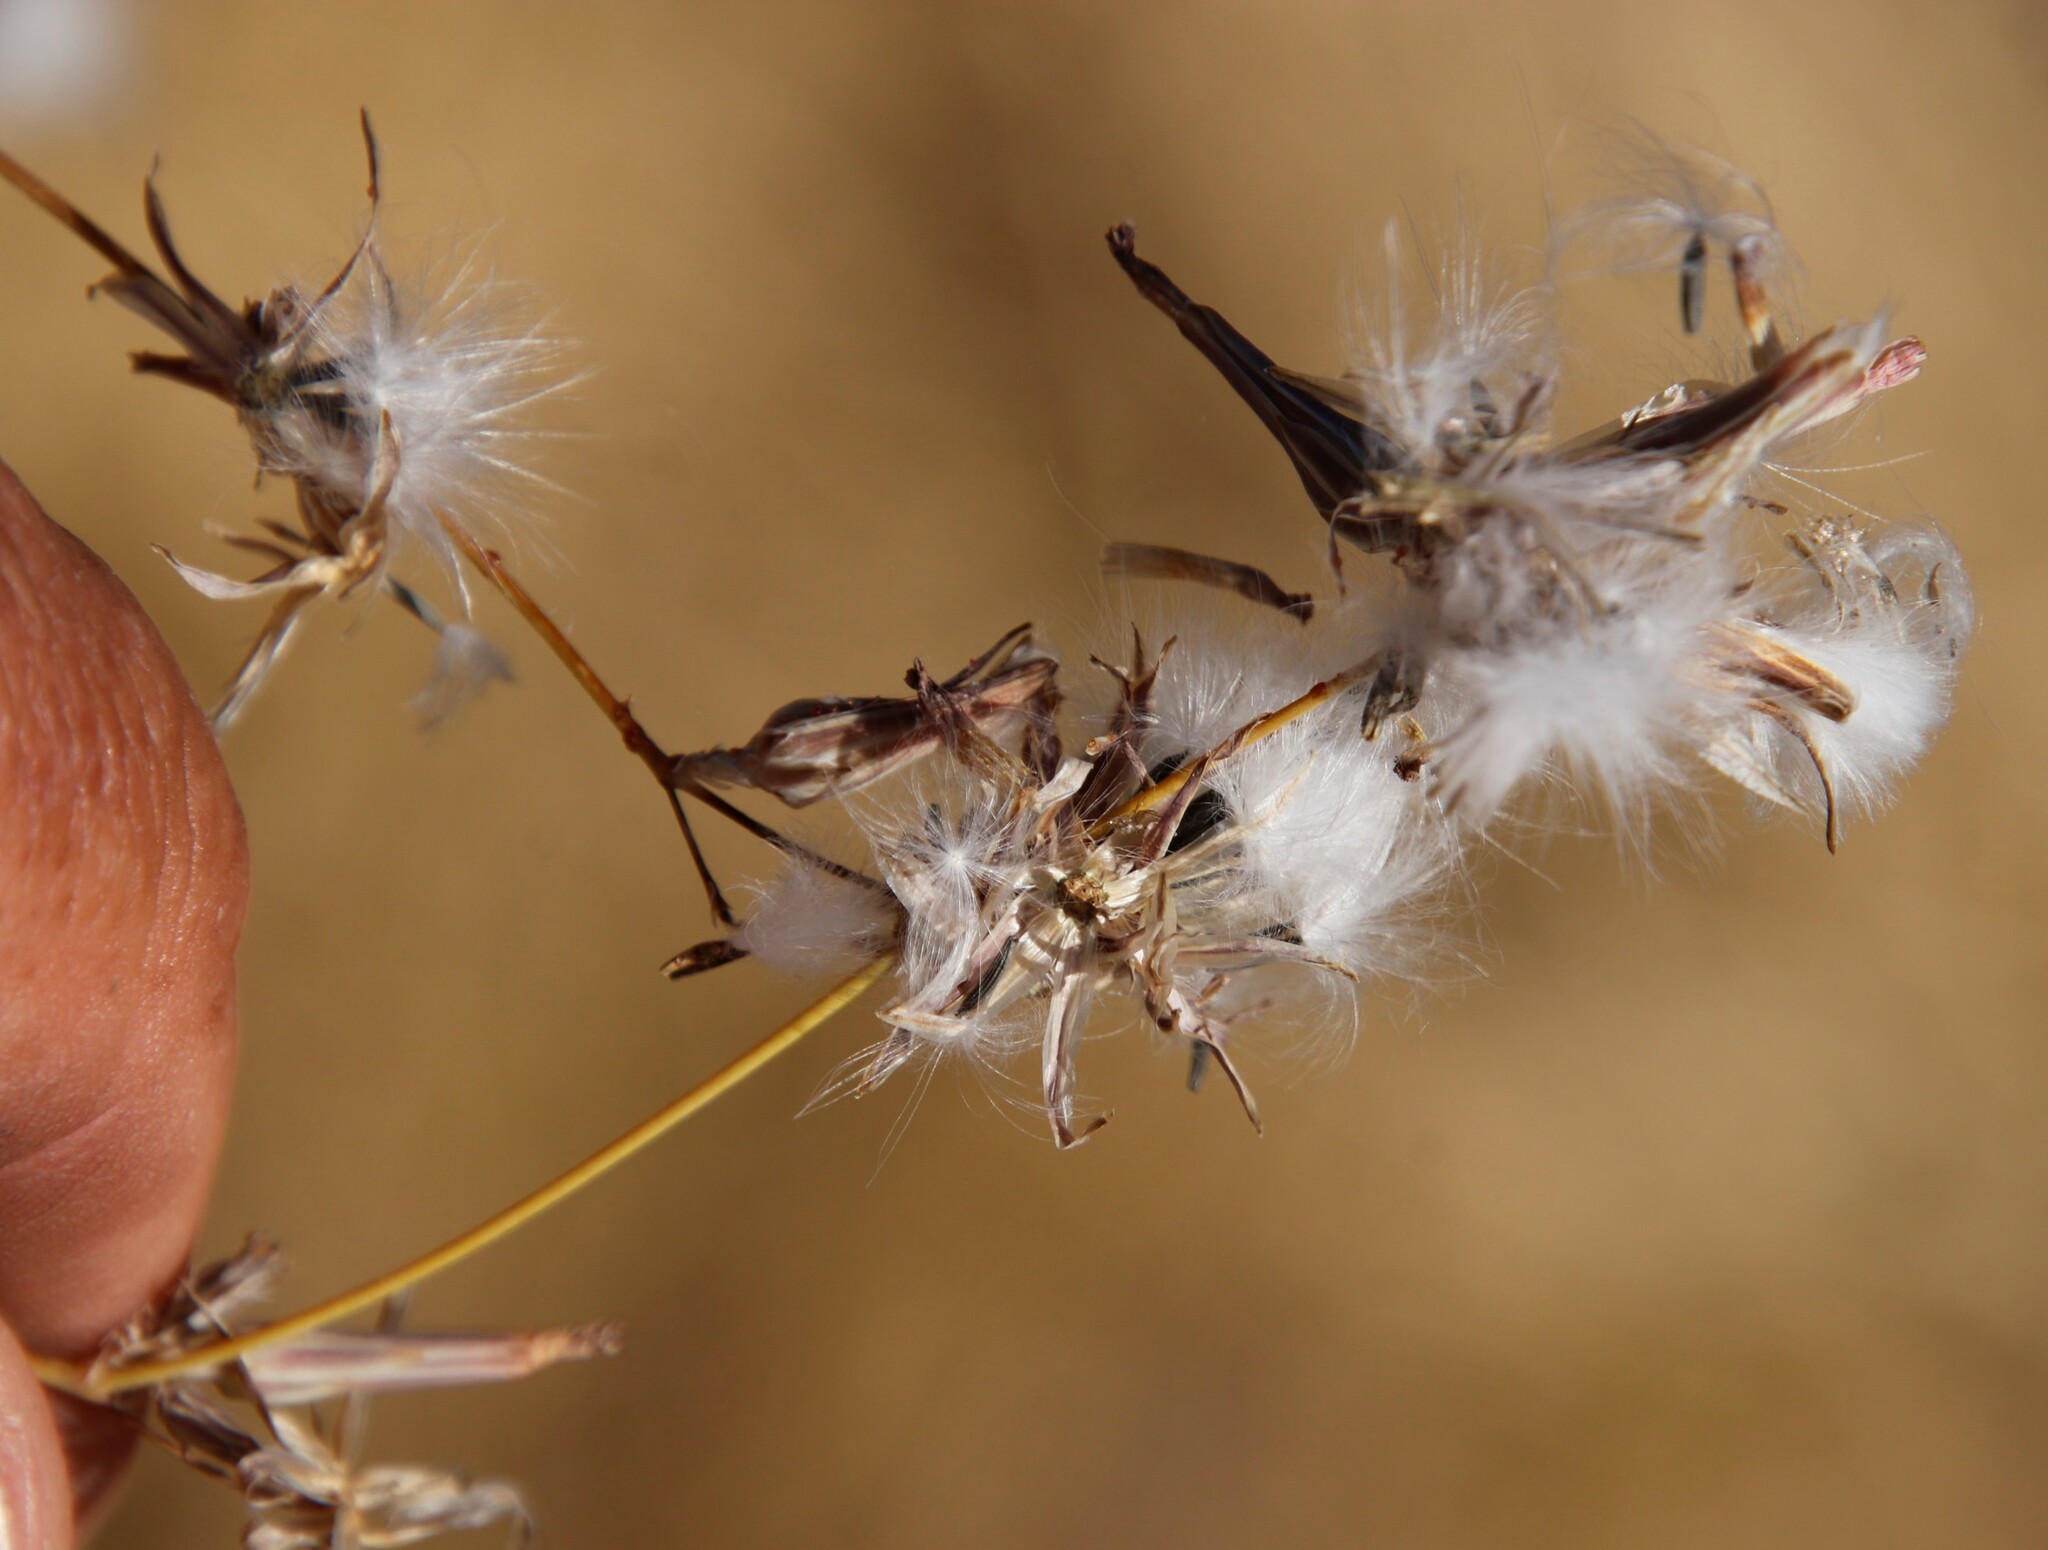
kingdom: Plantae
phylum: Tracheophyta
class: Magnoliopsida
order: Asterales
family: Asteraceae
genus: Launaea
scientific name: Launaea intybacea
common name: Achicoria azul
